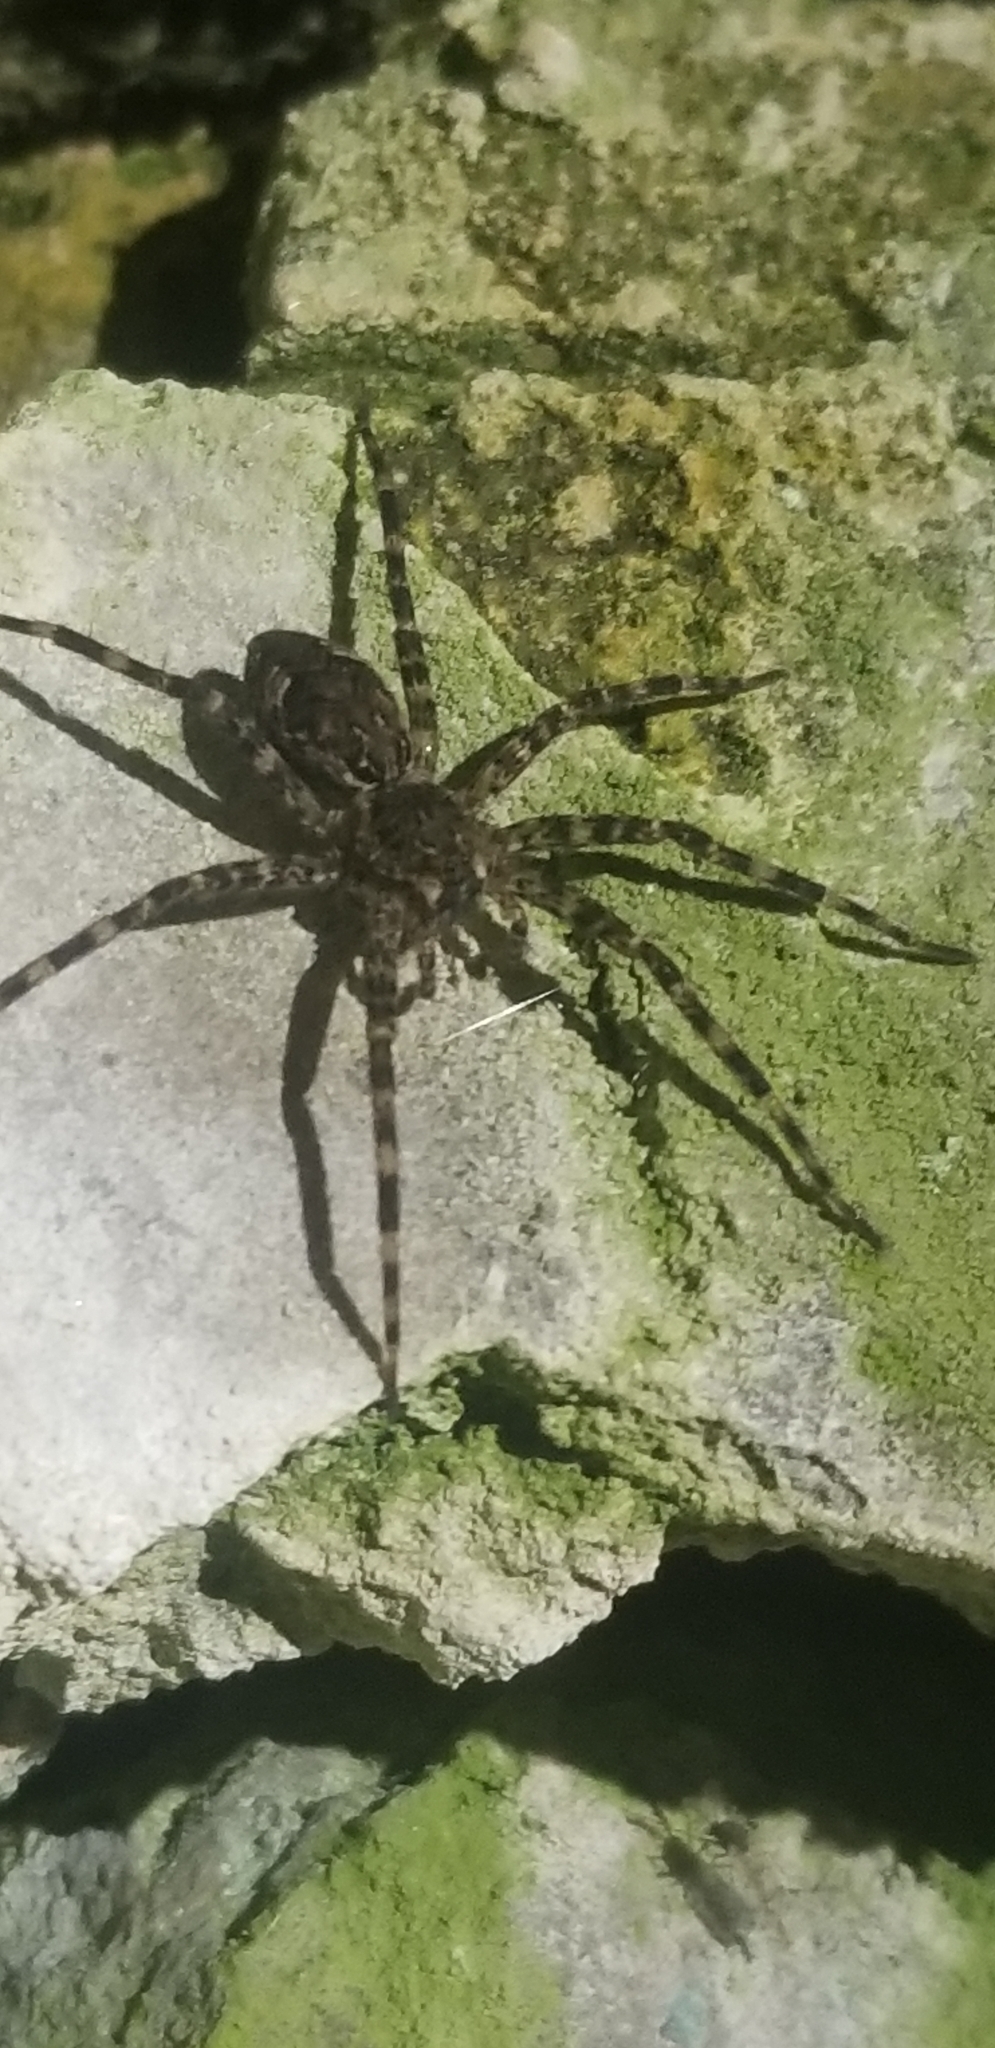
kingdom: Animalia
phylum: Arthropoda
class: Arachnida
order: Araneae
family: Pisauridae
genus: Dolomedes
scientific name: Dolomedes tenebrosus
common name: Dark fishing spider
